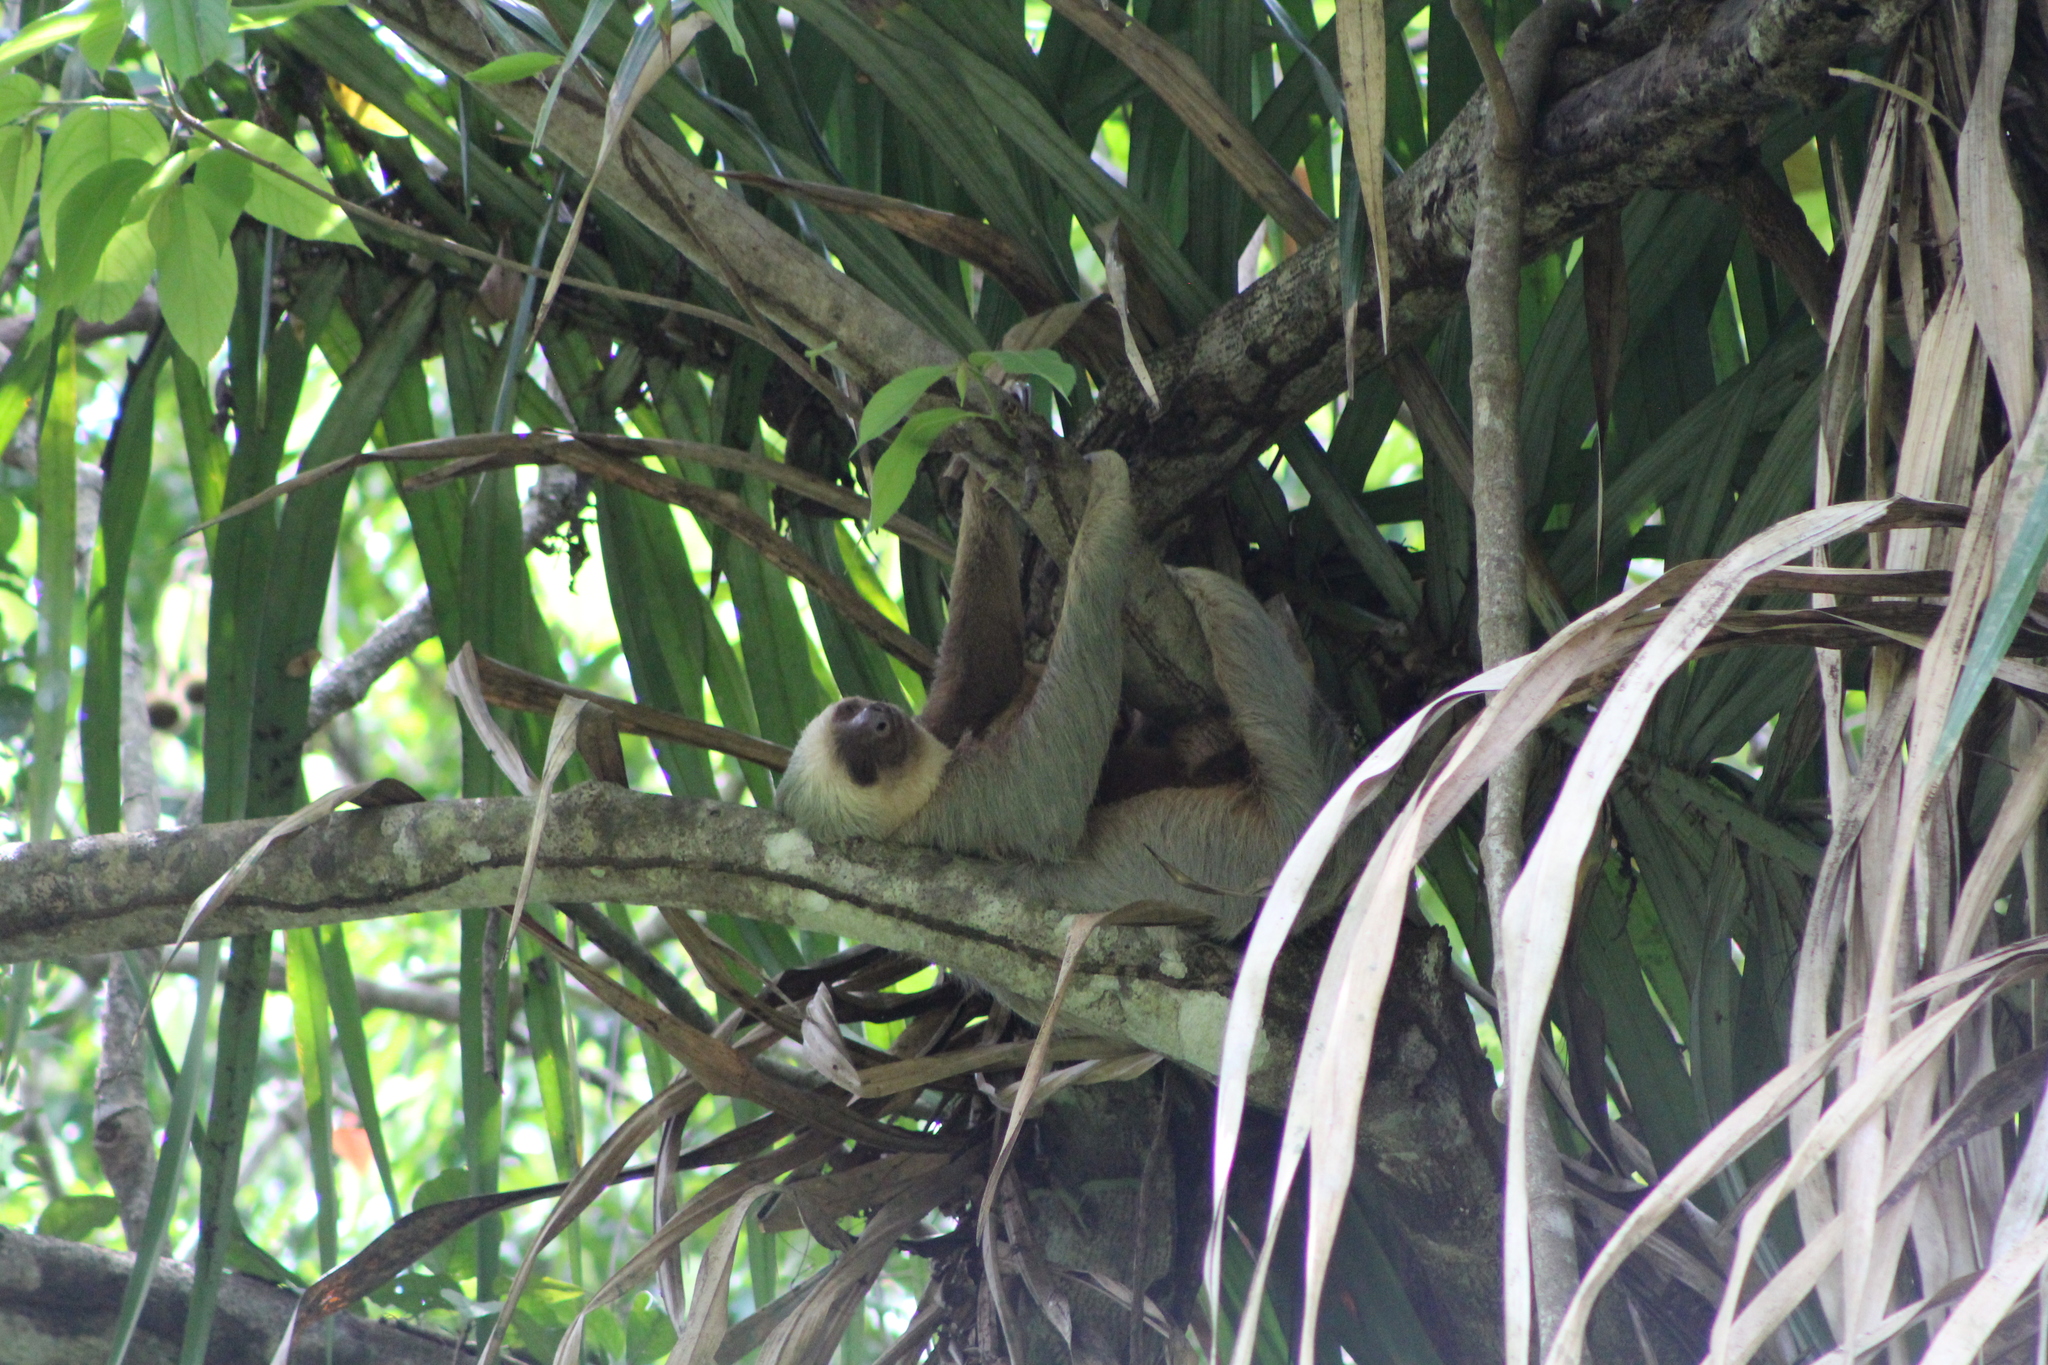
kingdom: Animalia
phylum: Chordata
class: Mammalia
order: Pilosa
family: Megalonychidae
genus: Choloepus
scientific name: Choloepus hoffmanni
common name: Hoffmann's two-toed sloth
